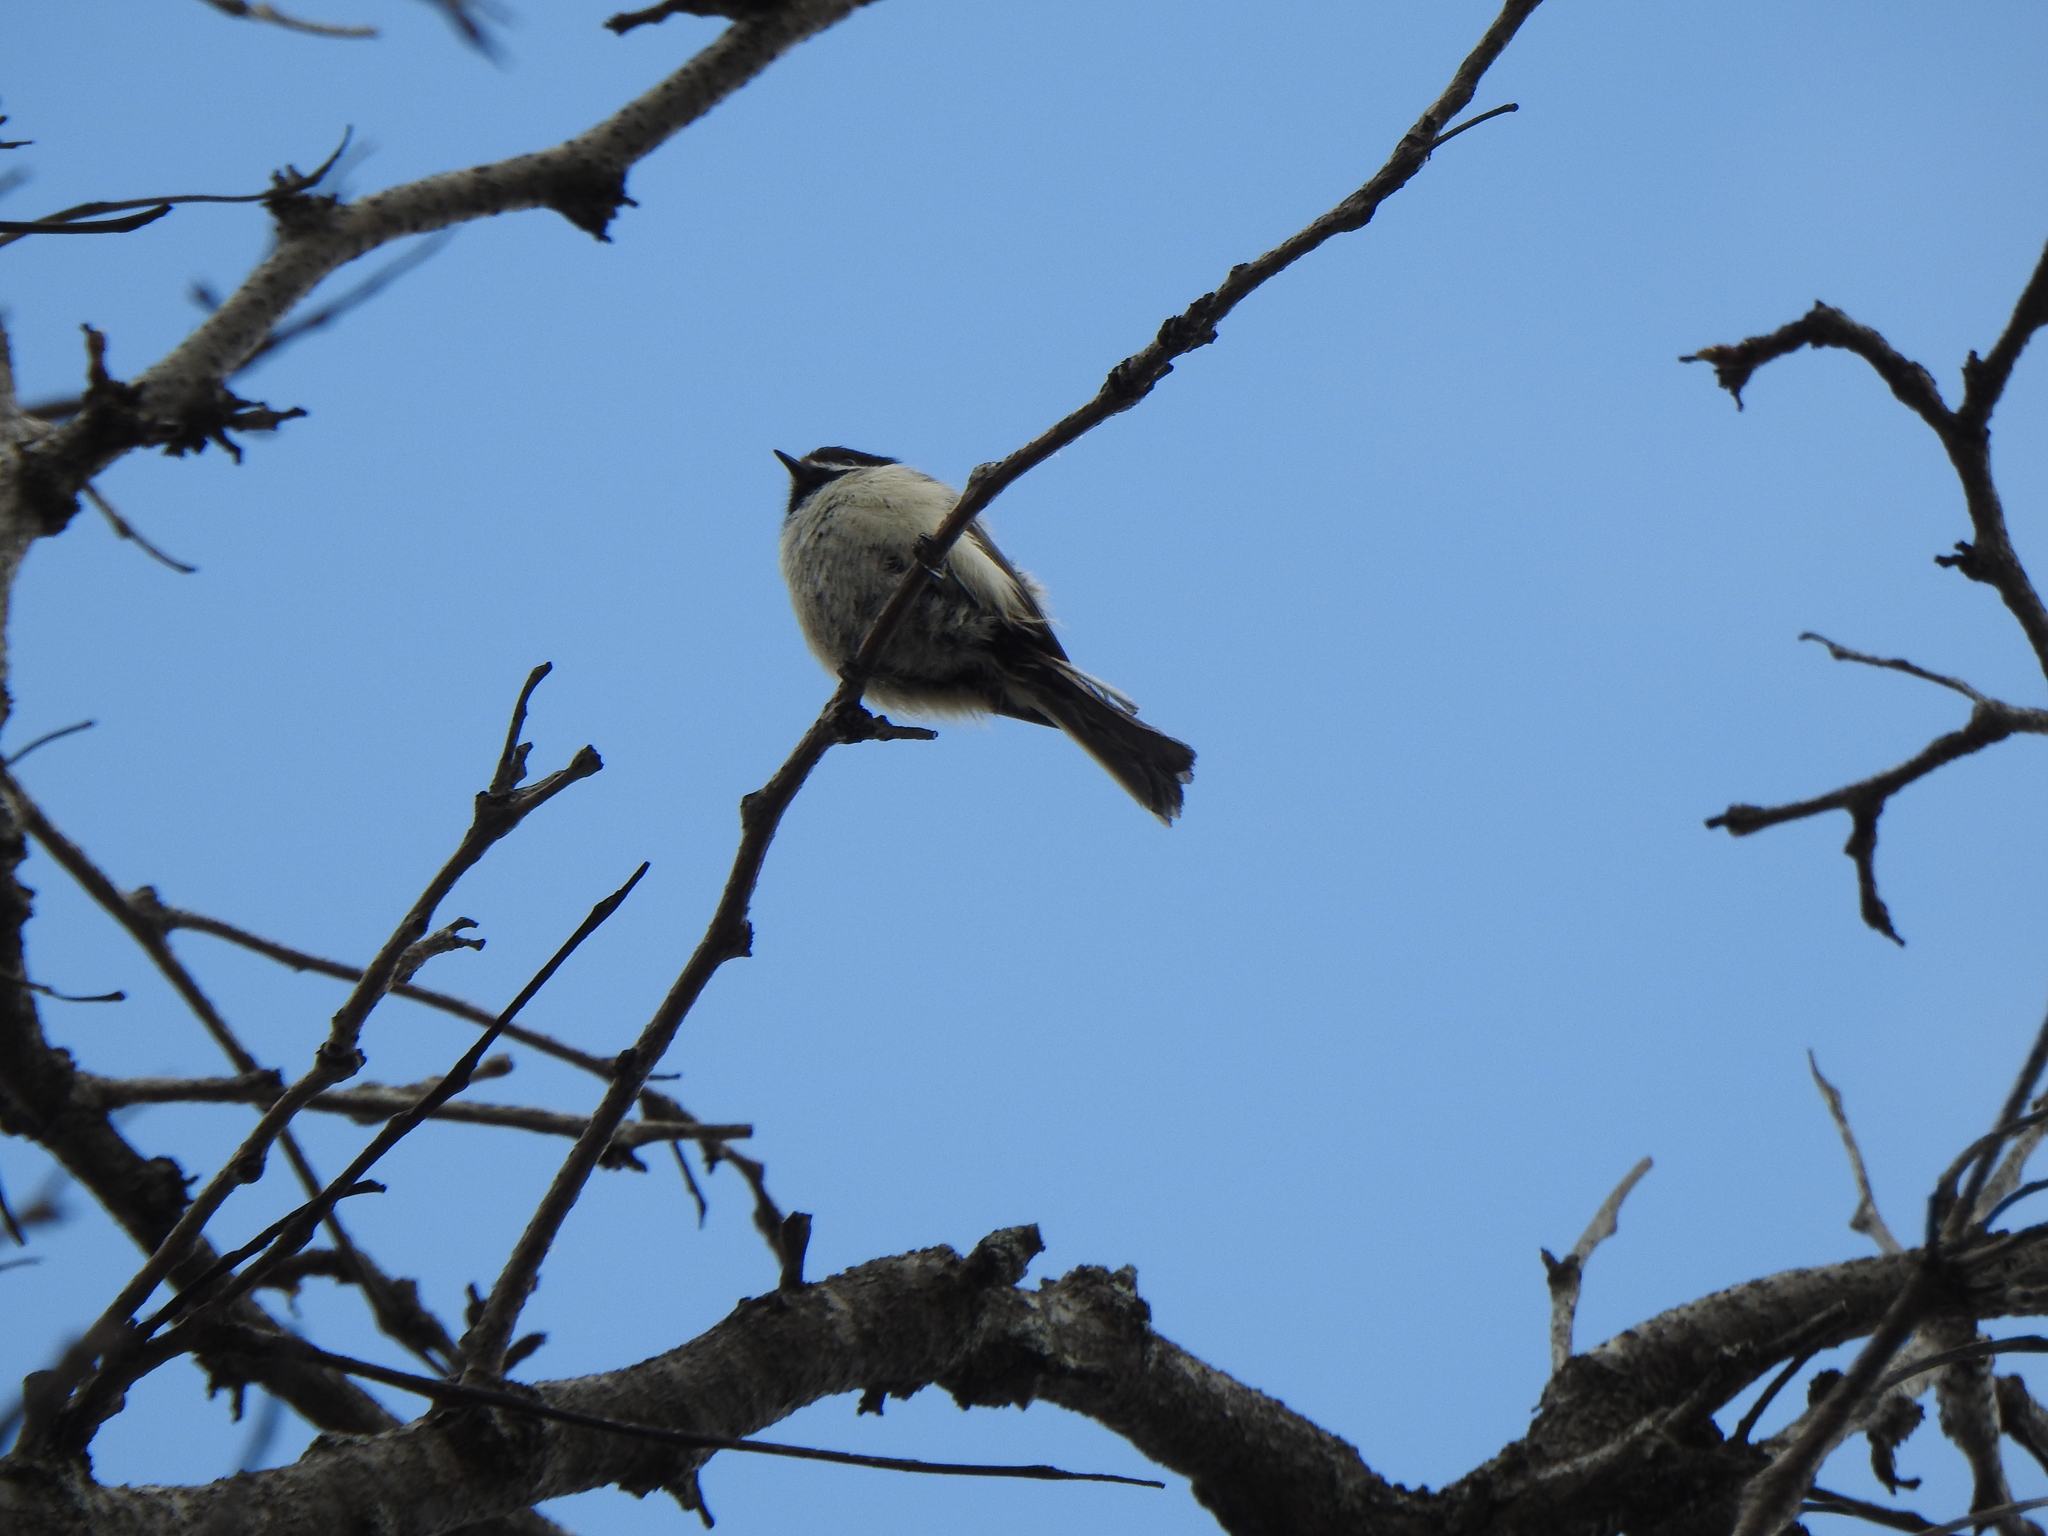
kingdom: Animalia
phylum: Chordata
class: Aves
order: Passeriformes
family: Paridae
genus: Poecile
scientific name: Poecile atricapillus
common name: Black-capped chickadee
